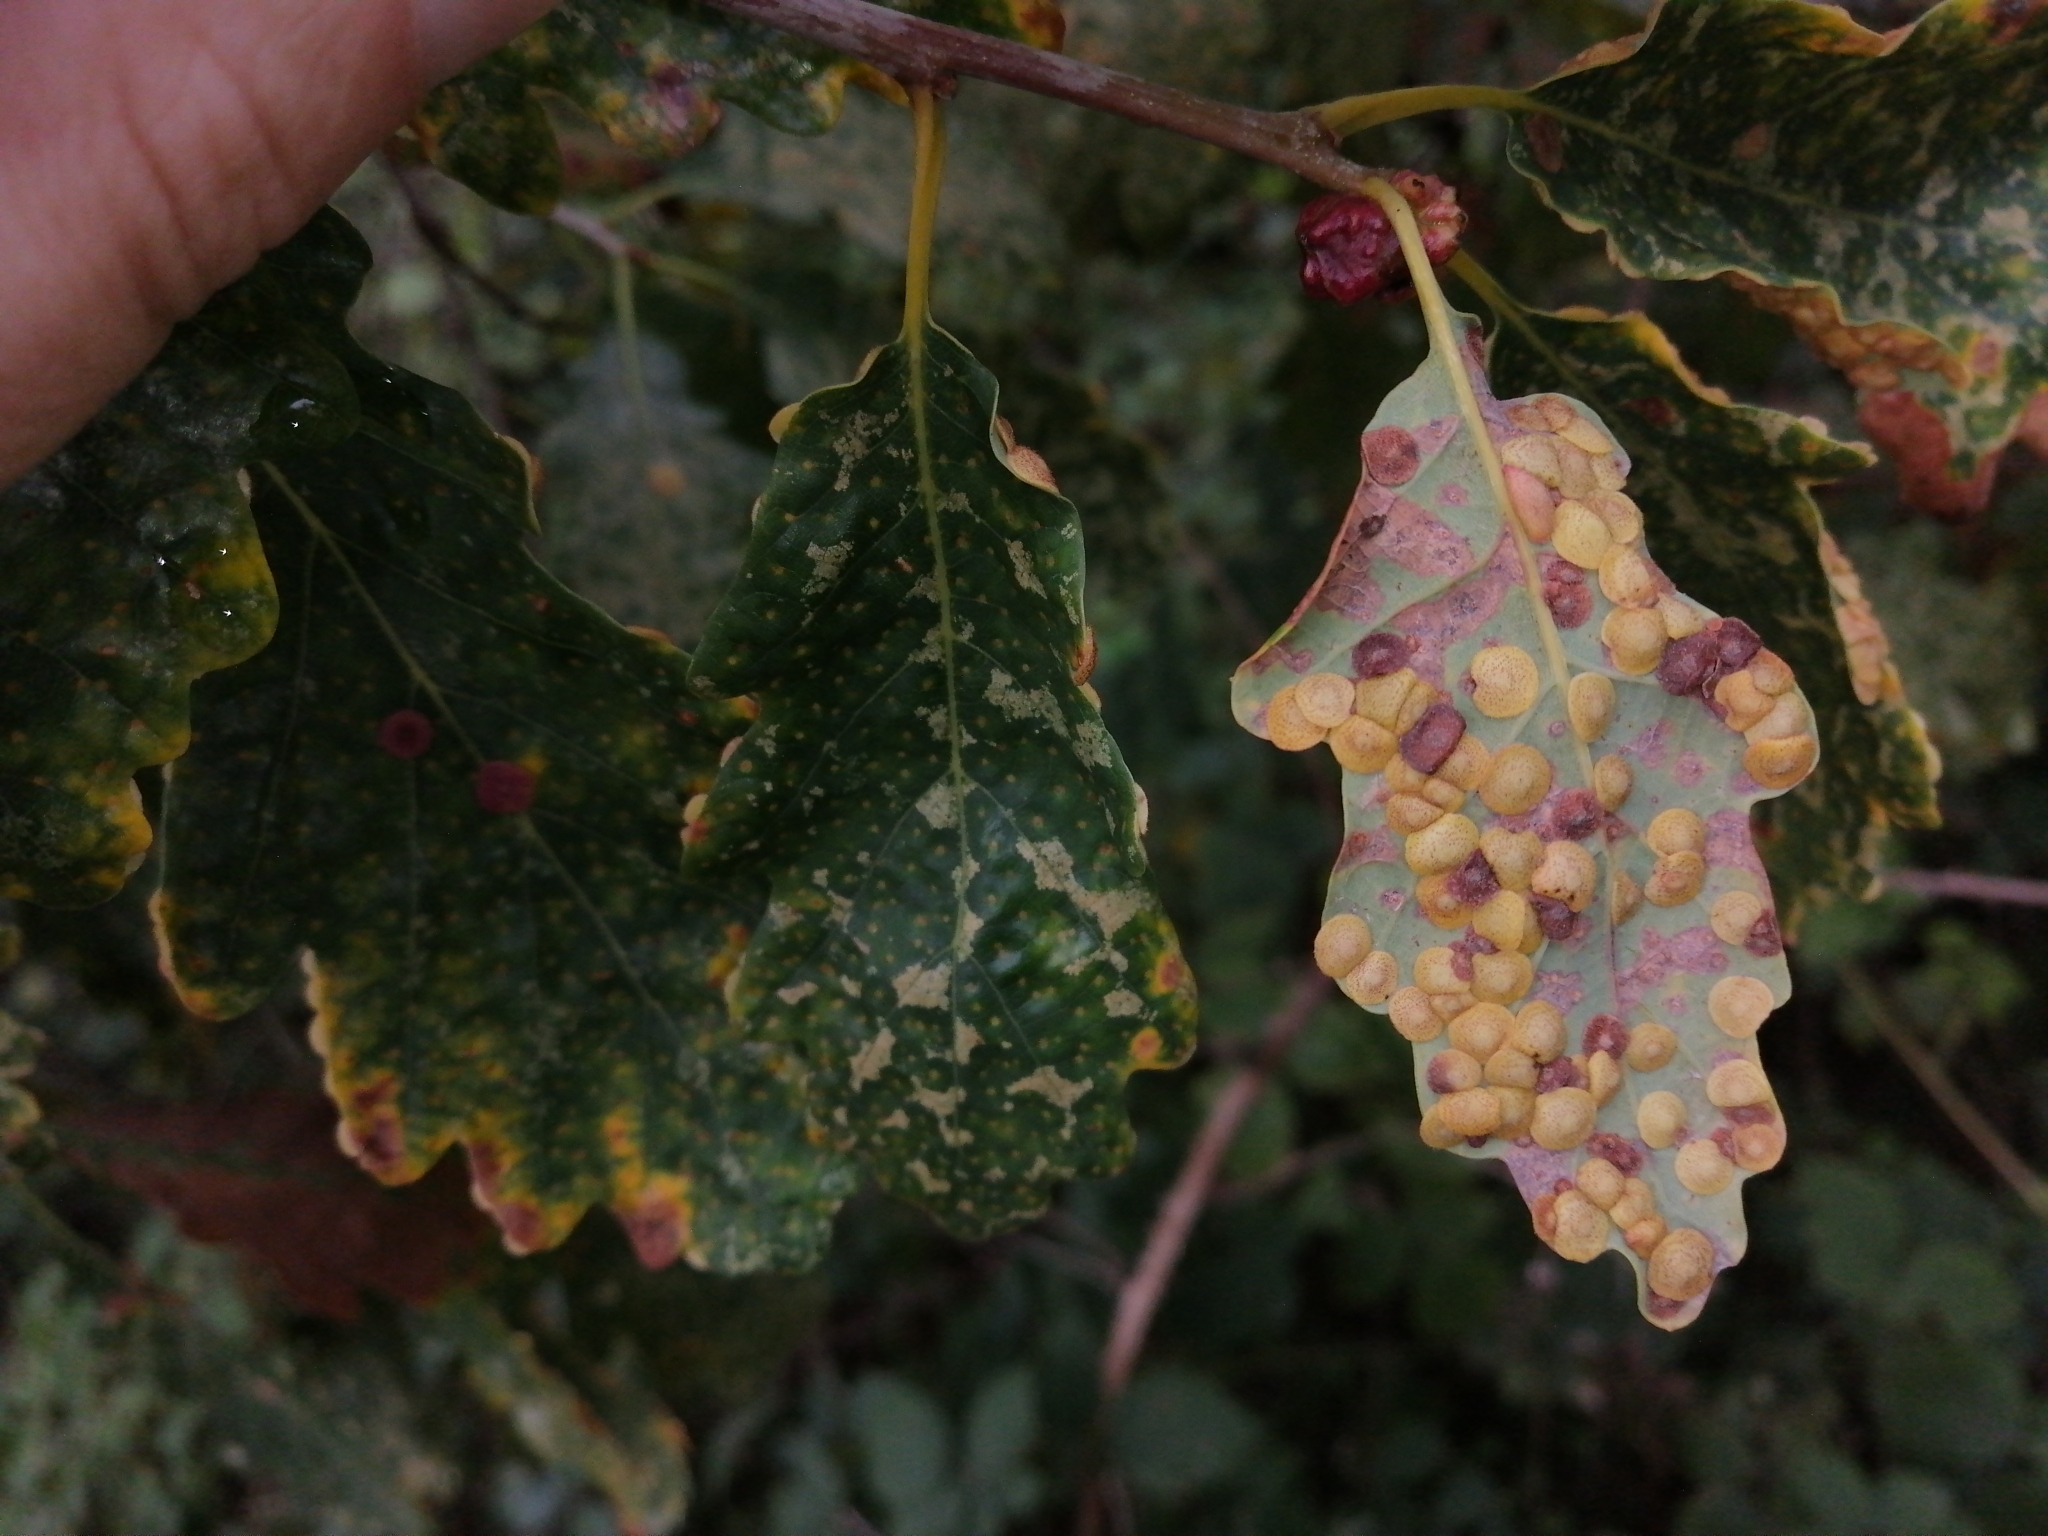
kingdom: Animalia
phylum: Arthropoda
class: Insecta
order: Hymenoptera
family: Cynipidae
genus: Neuroterus
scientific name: Neuroterus quercusbaccarum
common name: Common spangle gall
